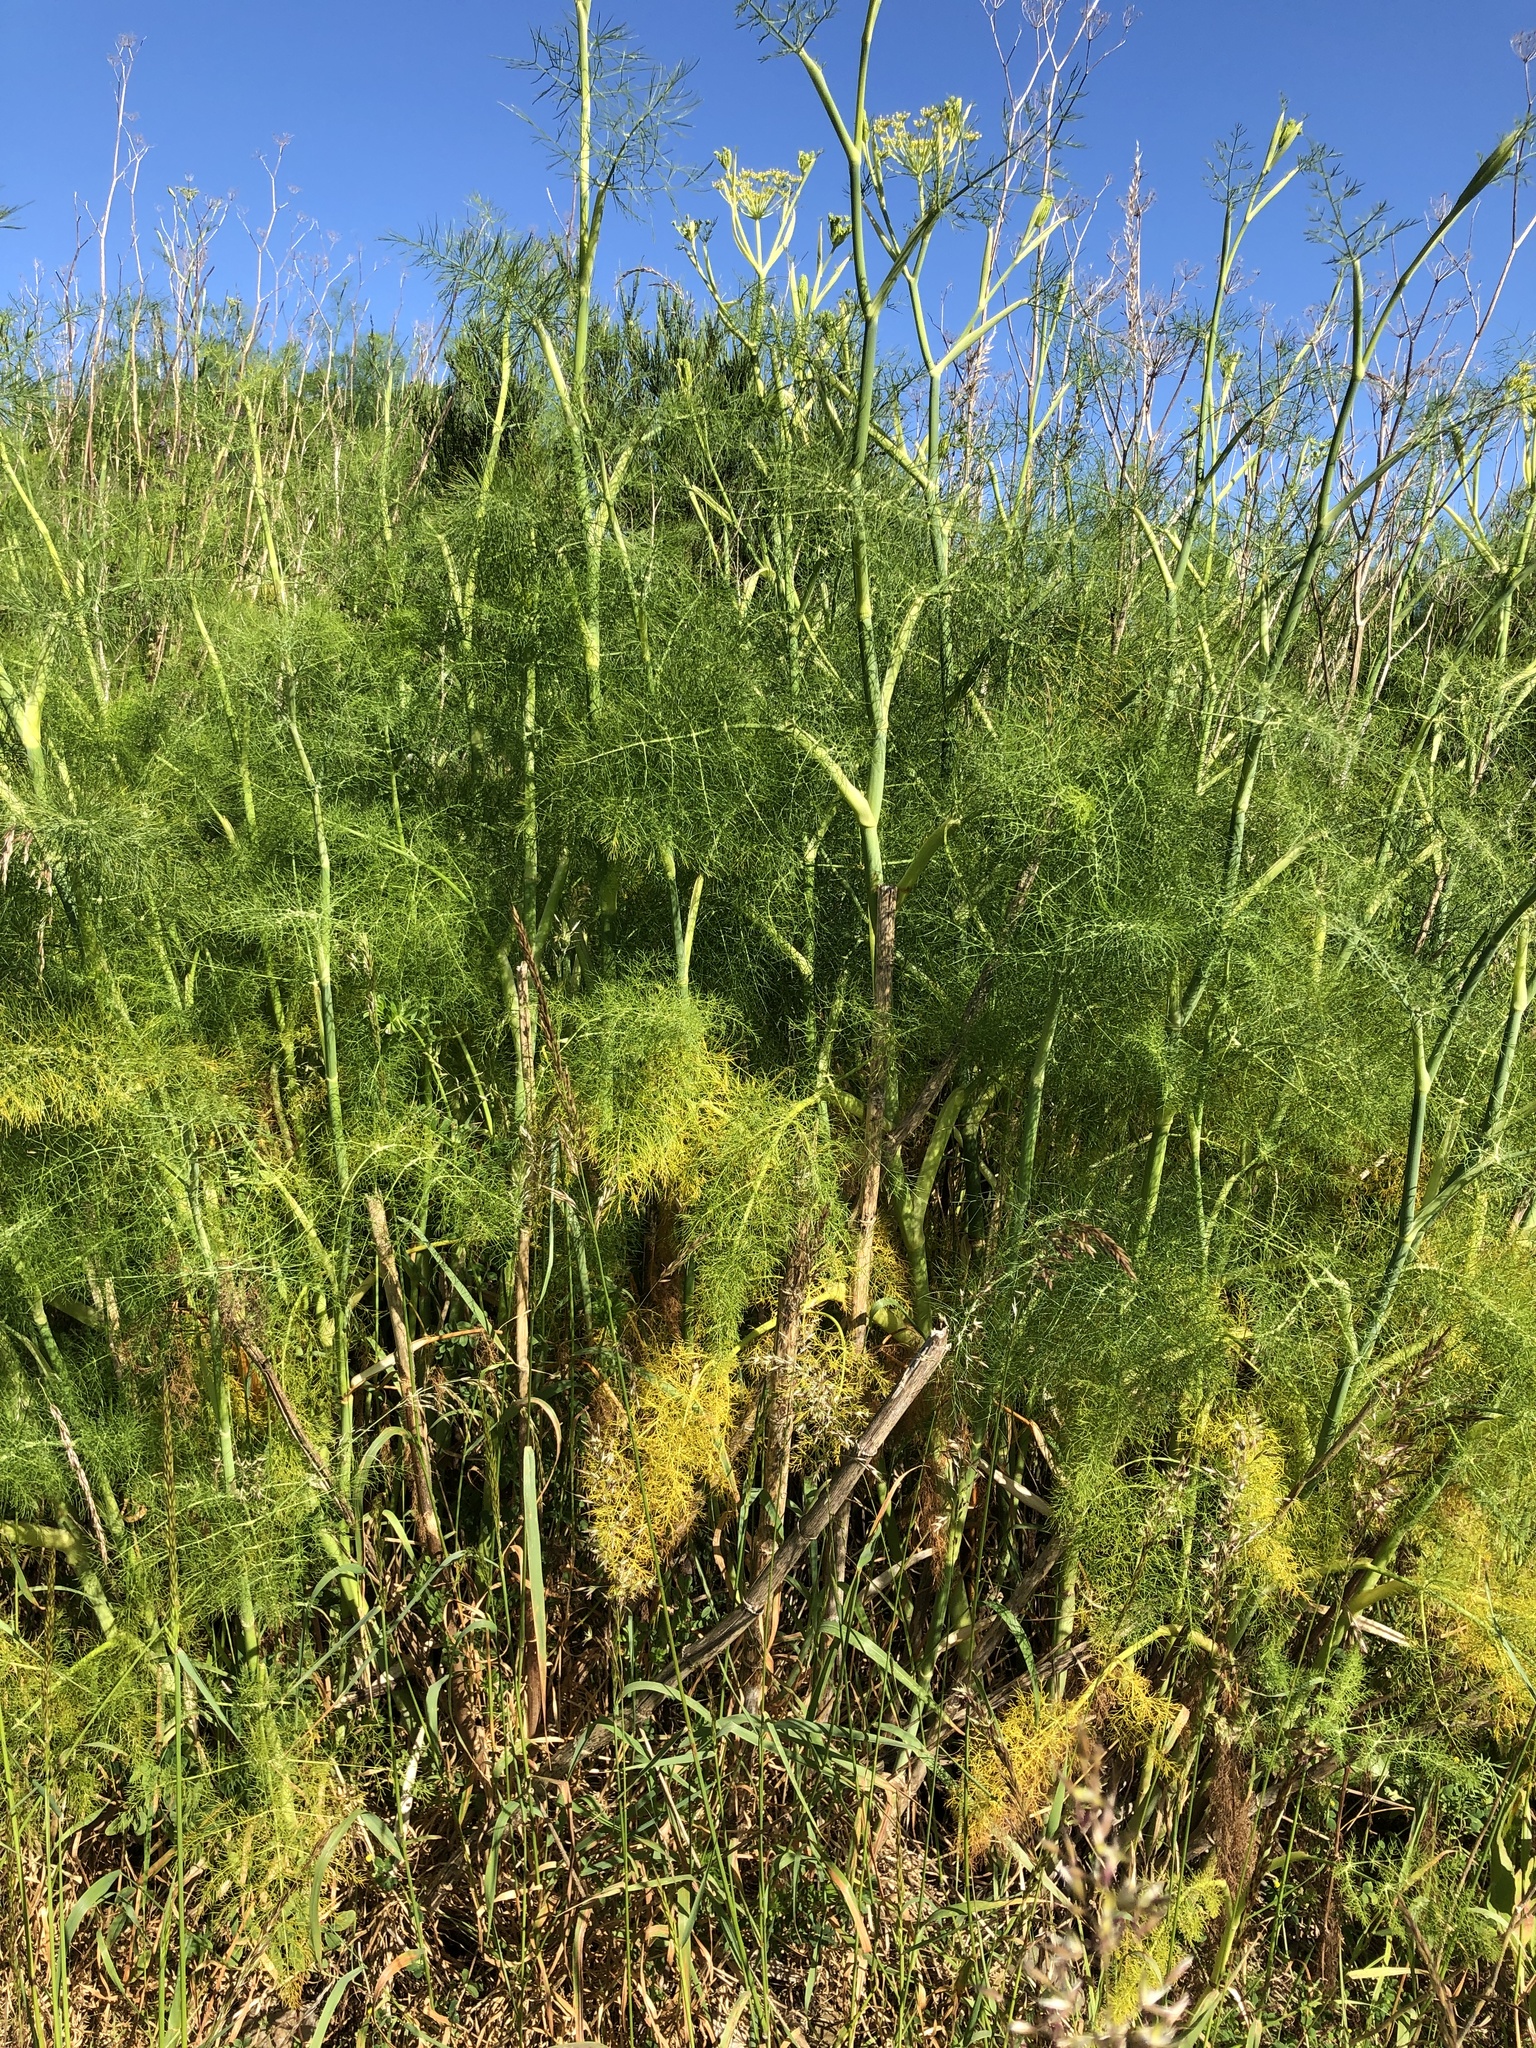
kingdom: Plantae
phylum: Tracheophyta
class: Magnoliopsida
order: Apiales
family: Apiaceae
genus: Foeniculum
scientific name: Foeniculum vulgare
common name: Fennel
